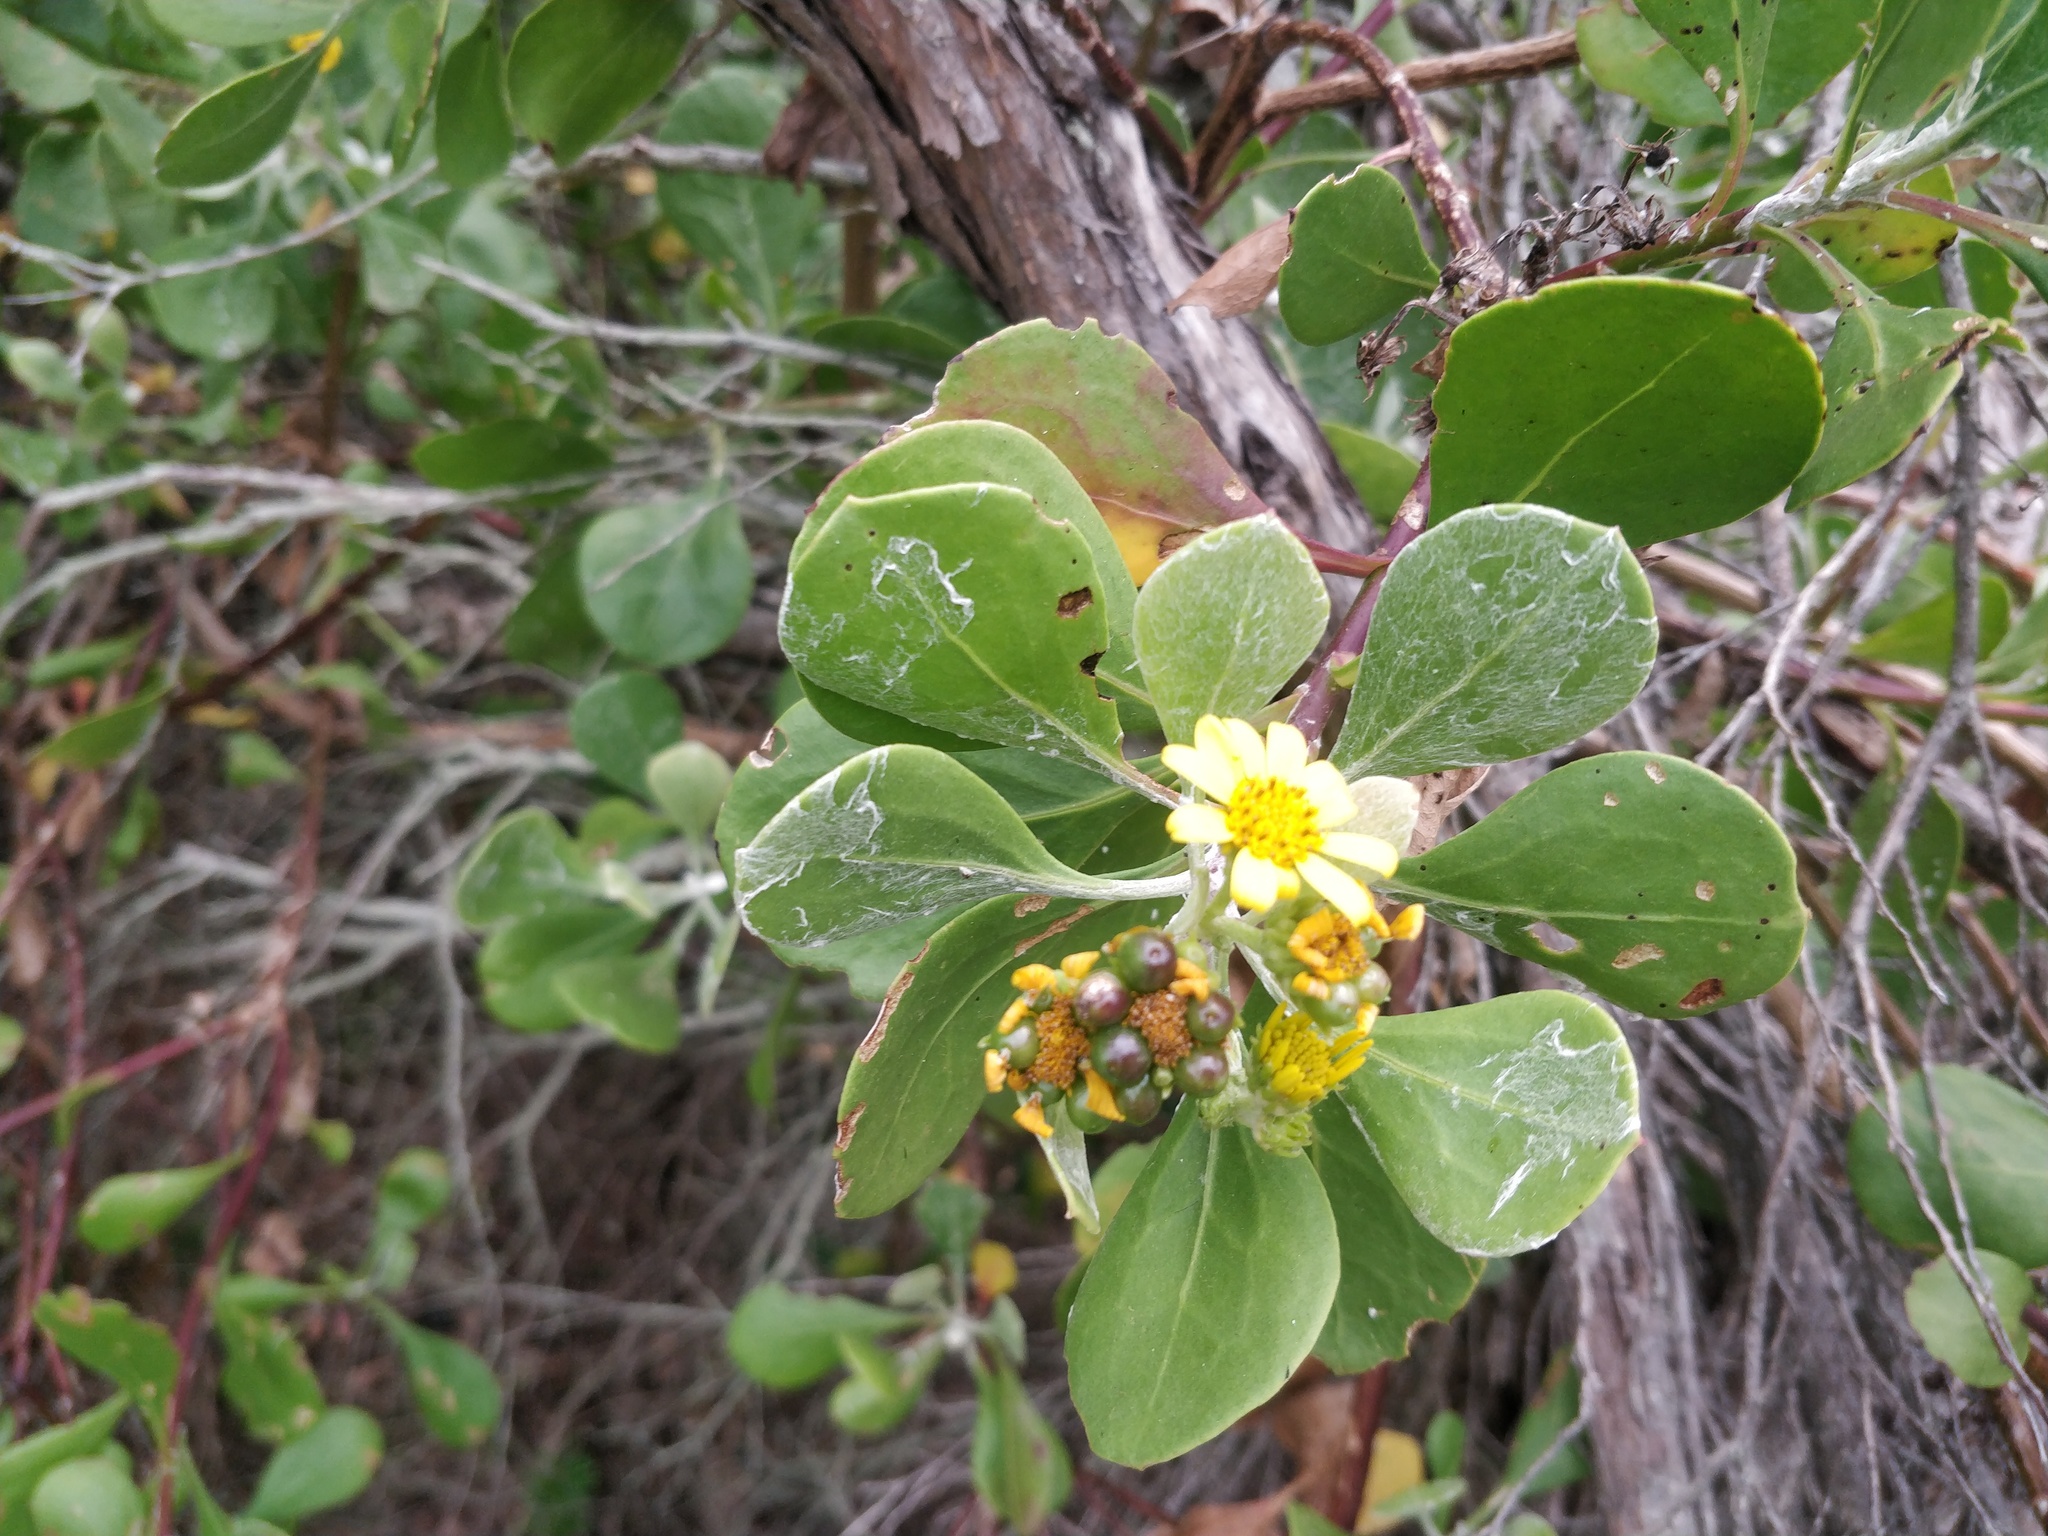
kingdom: Plantae
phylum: Tracheophyta
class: Magnoliopsida
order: Asterales
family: Asteraceae
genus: Osteospermum
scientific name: Osteospermum moniliferum
